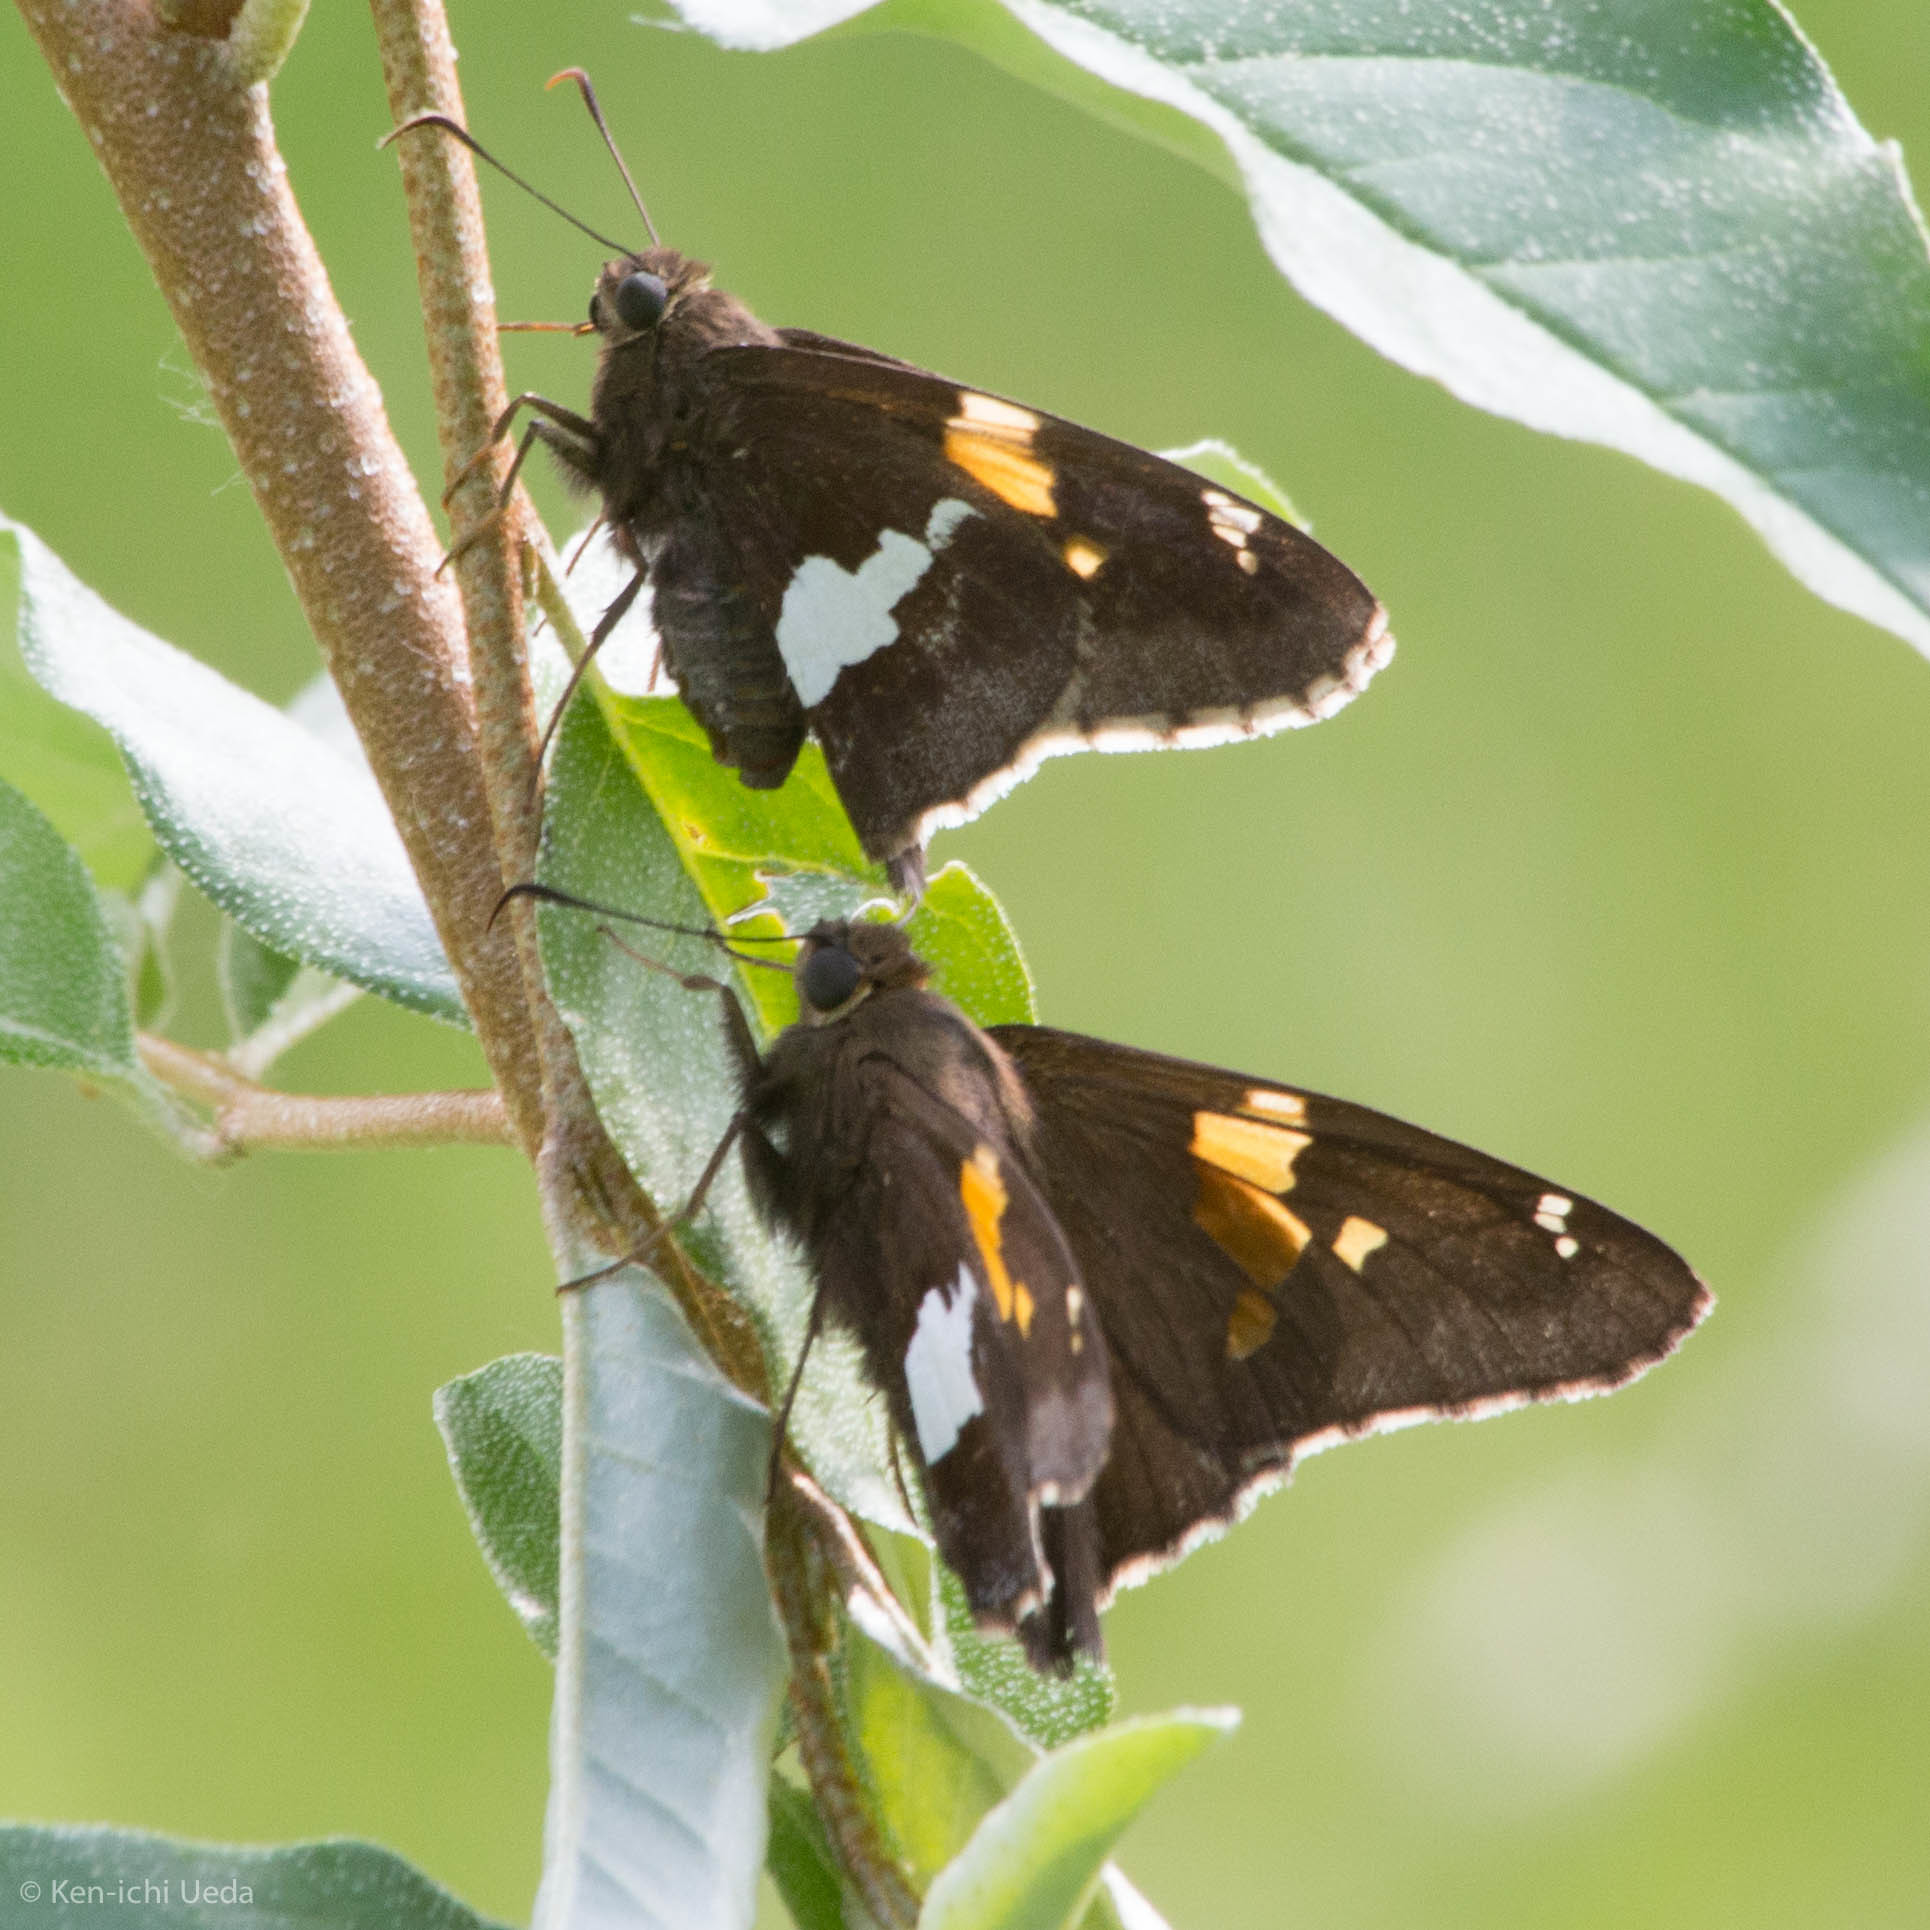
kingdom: Animalia
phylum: Arthropoda
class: Insecta
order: Lepidoptera
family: Hesperiidae
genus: Epargyreus
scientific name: Epargyreus clarus
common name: Silver-spotted skipper
